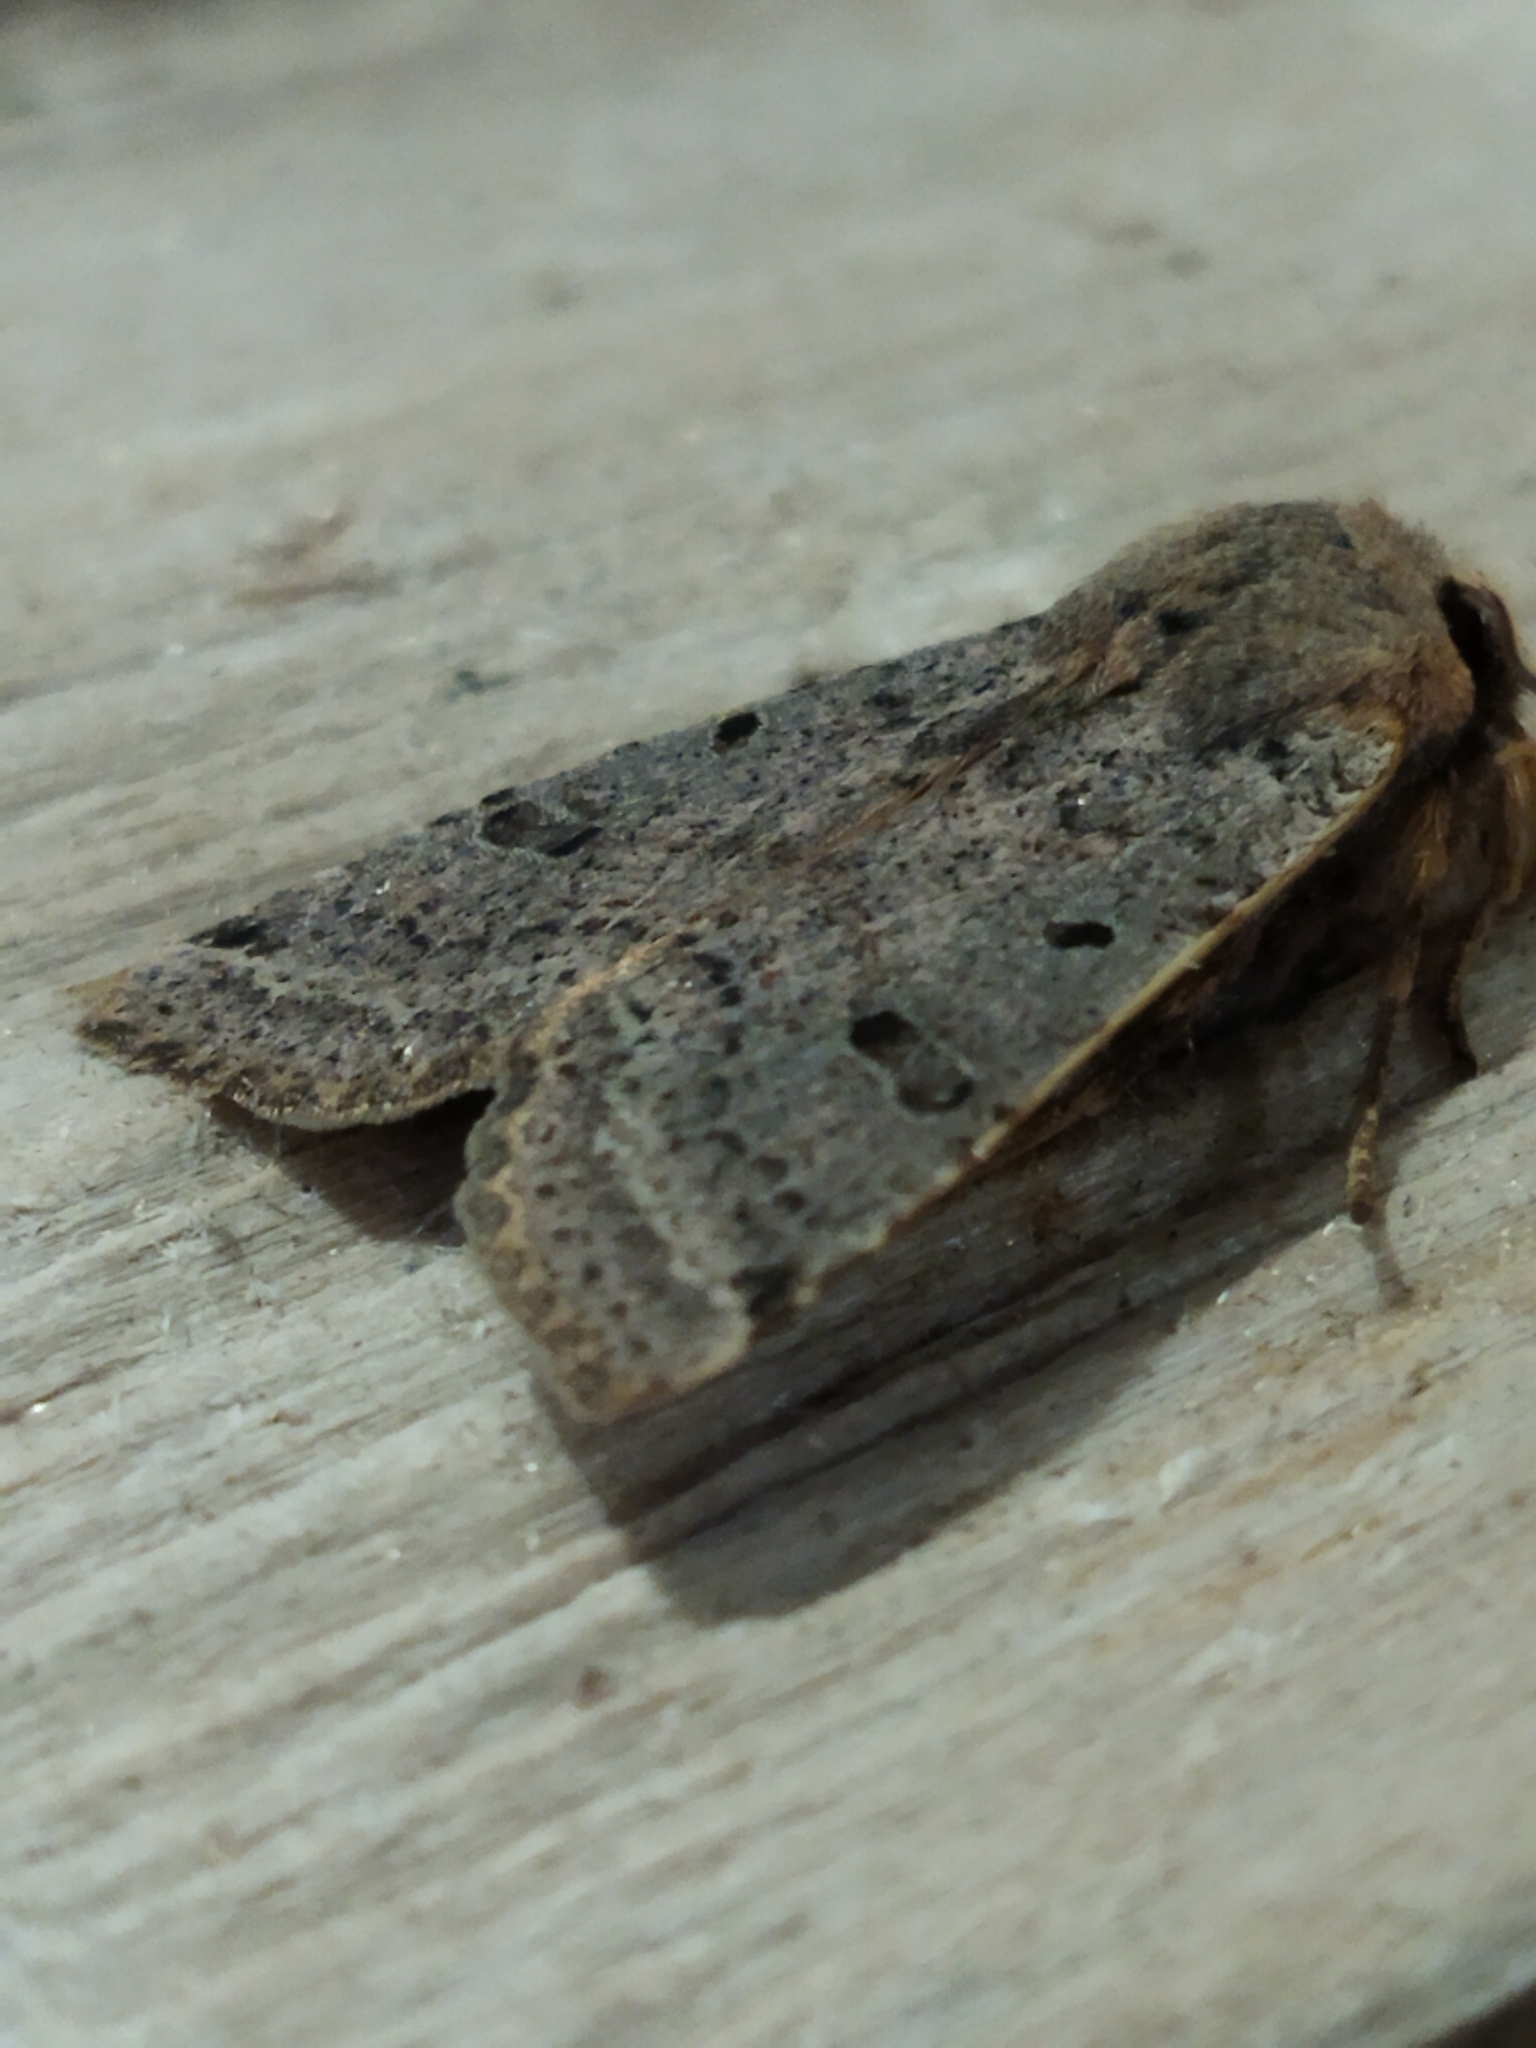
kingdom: Animalia
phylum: Arthropoda
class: Insecta
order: Lepidoptera
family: Noctuidae
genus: Agrochola
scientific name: Agrochola lychnidis
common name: Beaded chestnut
